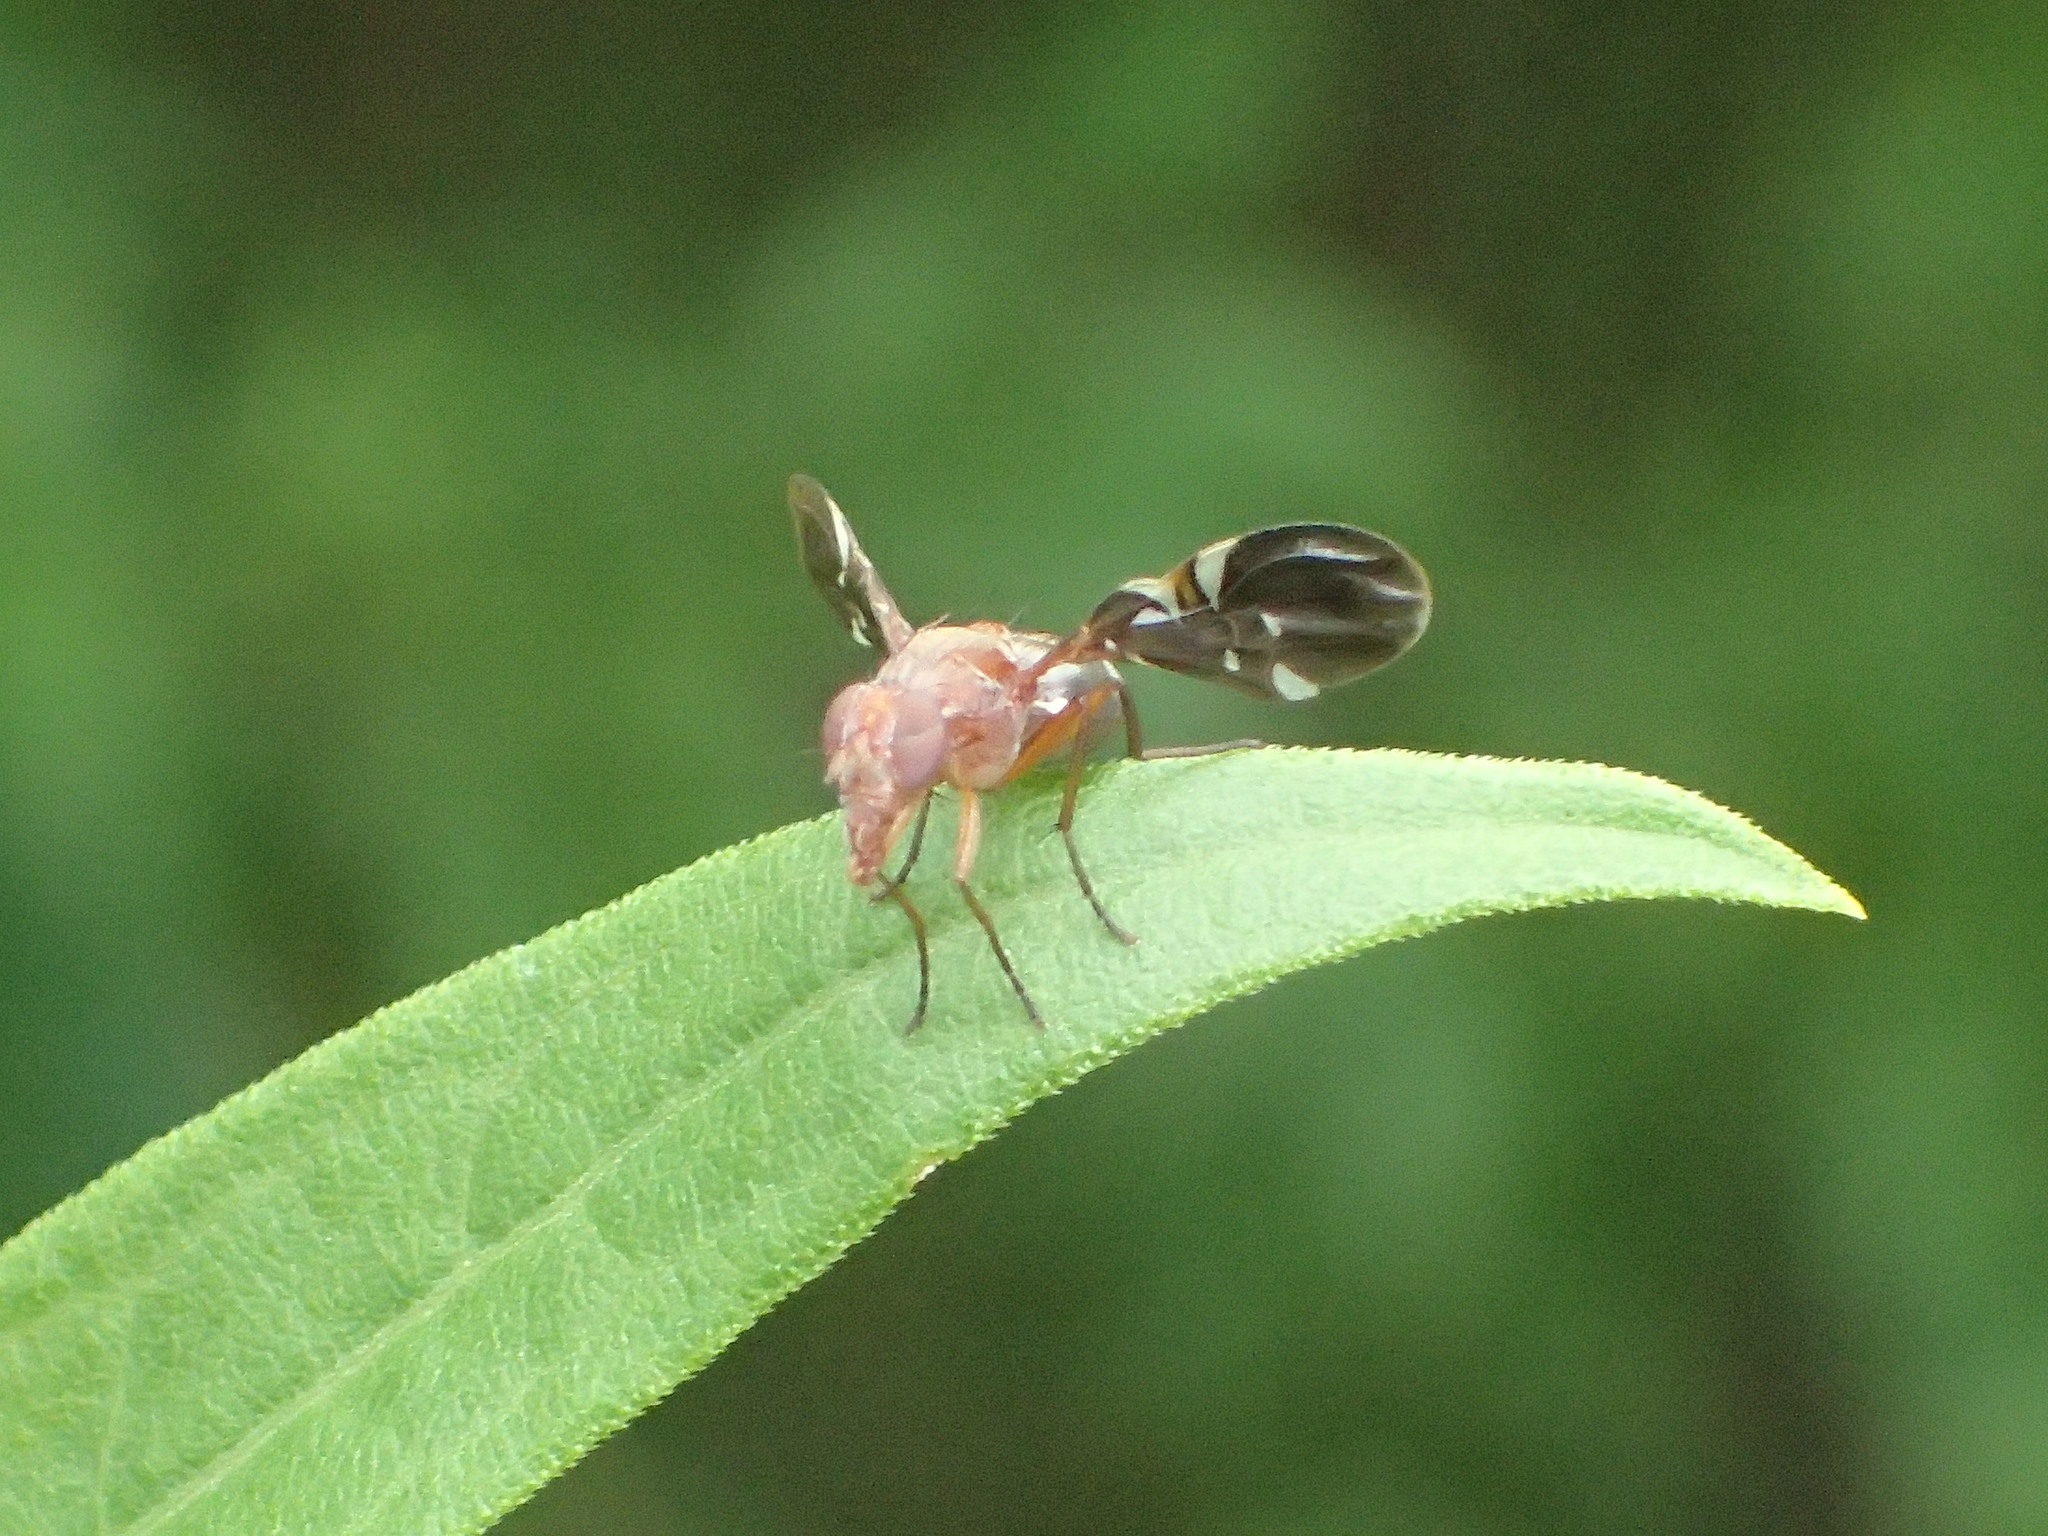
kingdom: Animalia
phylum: Arthropoda
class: Insecta
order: Diptera
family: Ulidiidae
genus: Delphinia
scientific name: Delphinia picta
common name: Common picture-winged fly
